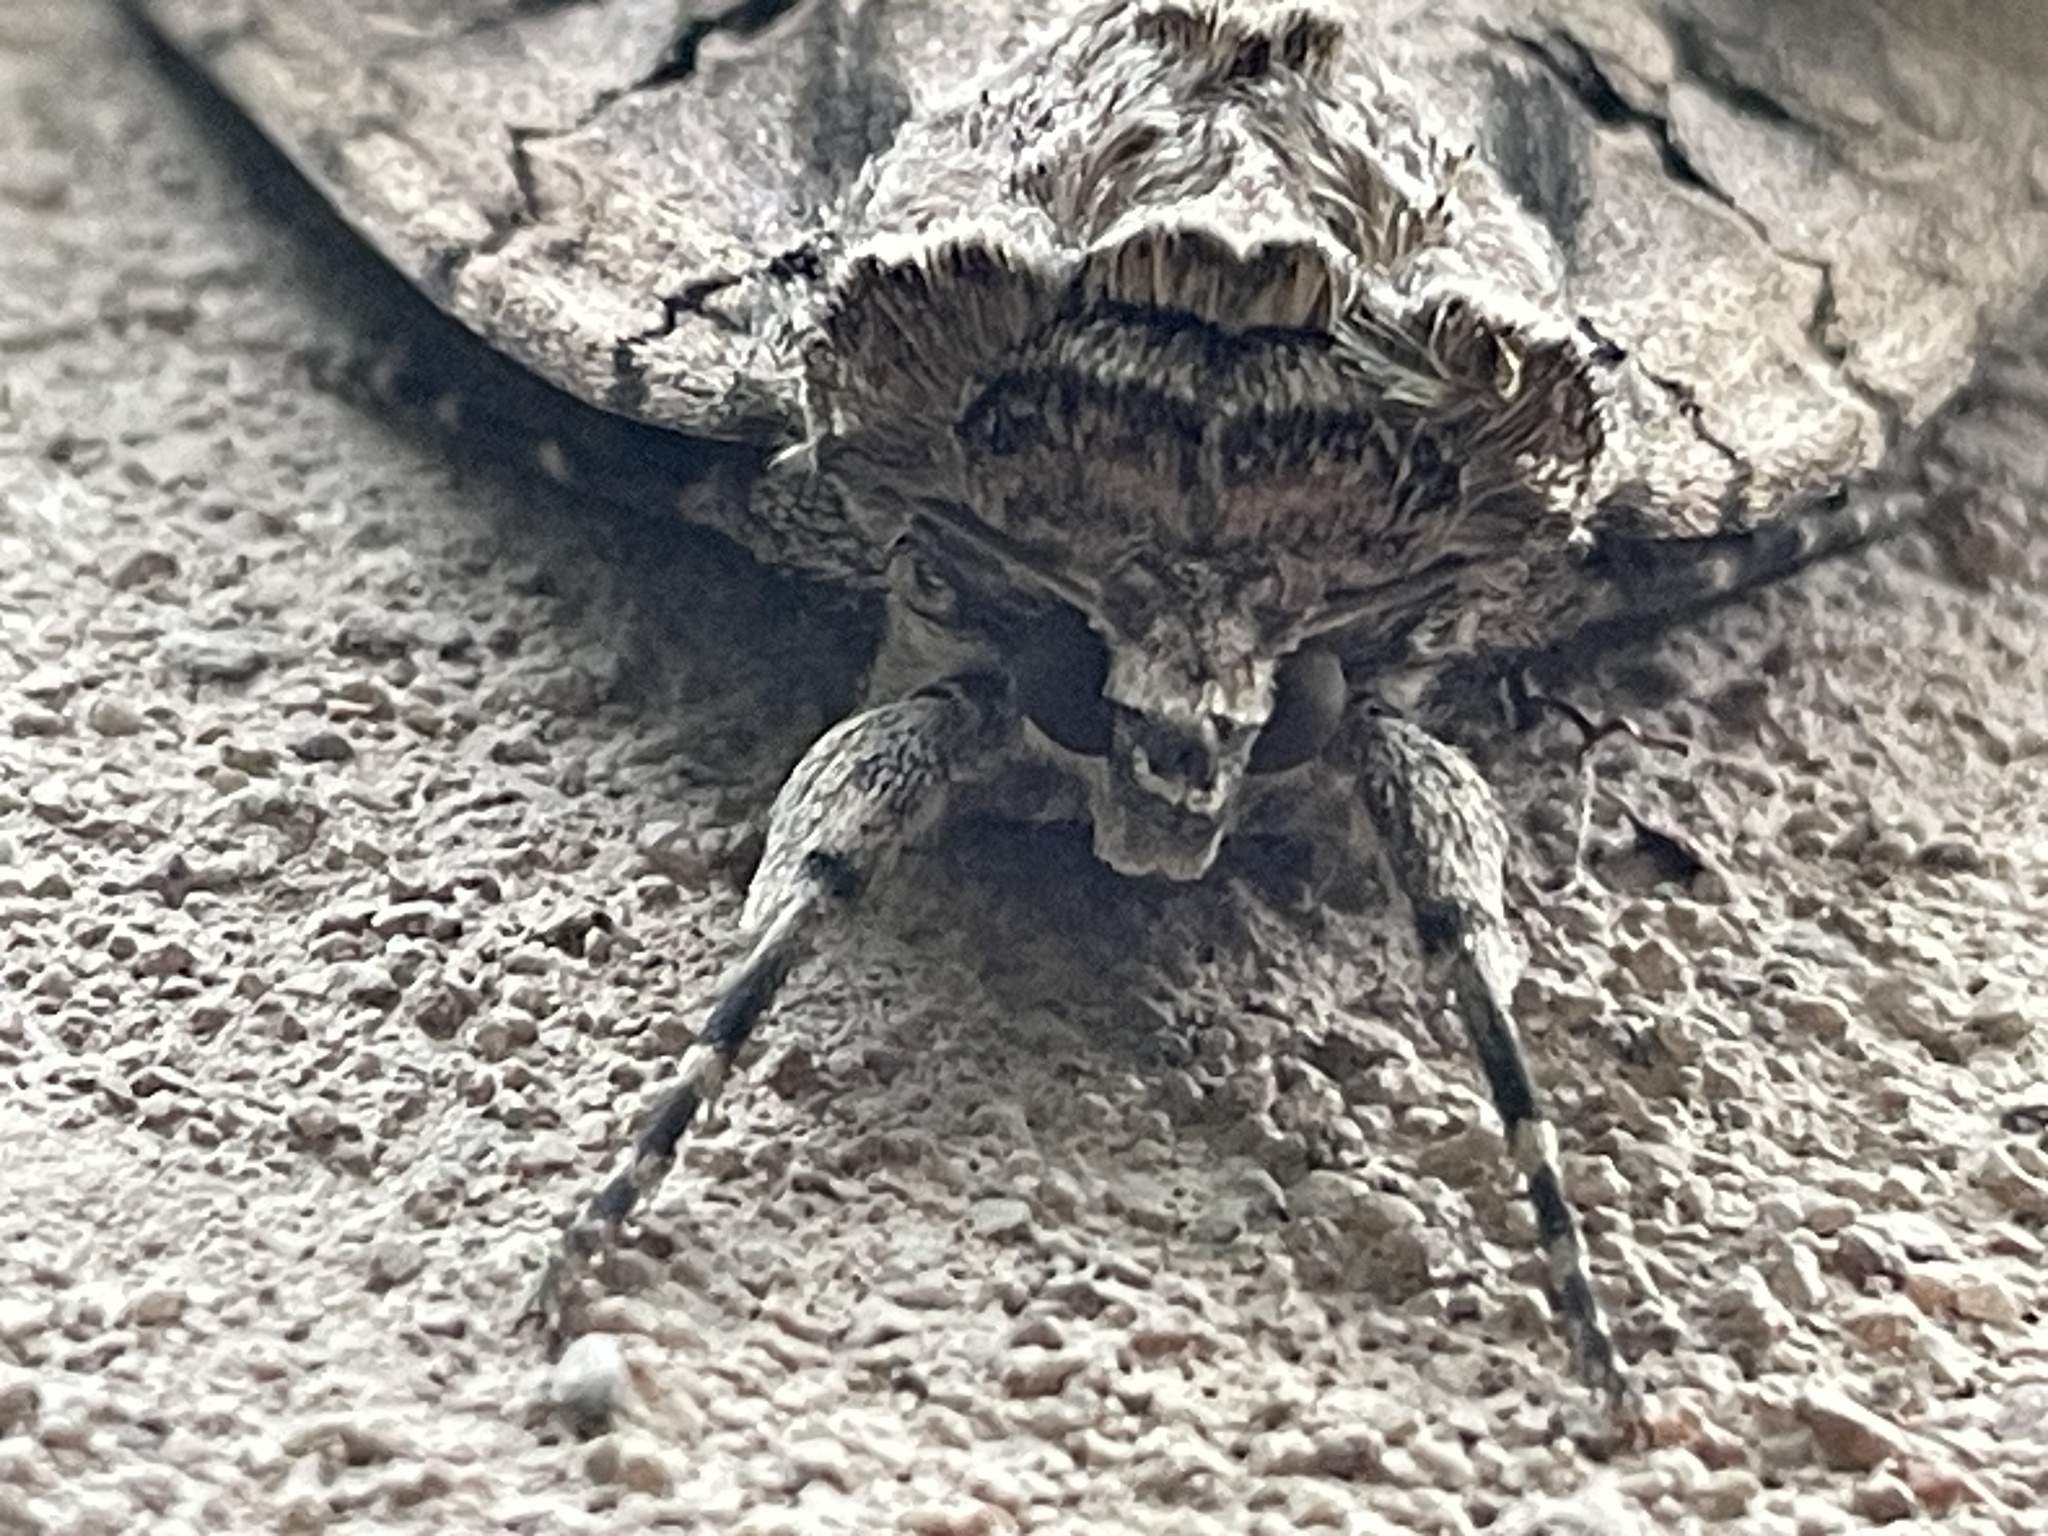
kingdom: Animalia
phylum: Arthropoda
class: Insecta
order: Lepidoptera
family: Erebidae
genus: Catocala
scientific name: Catocala amatrix
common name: Sweetheart underwing
